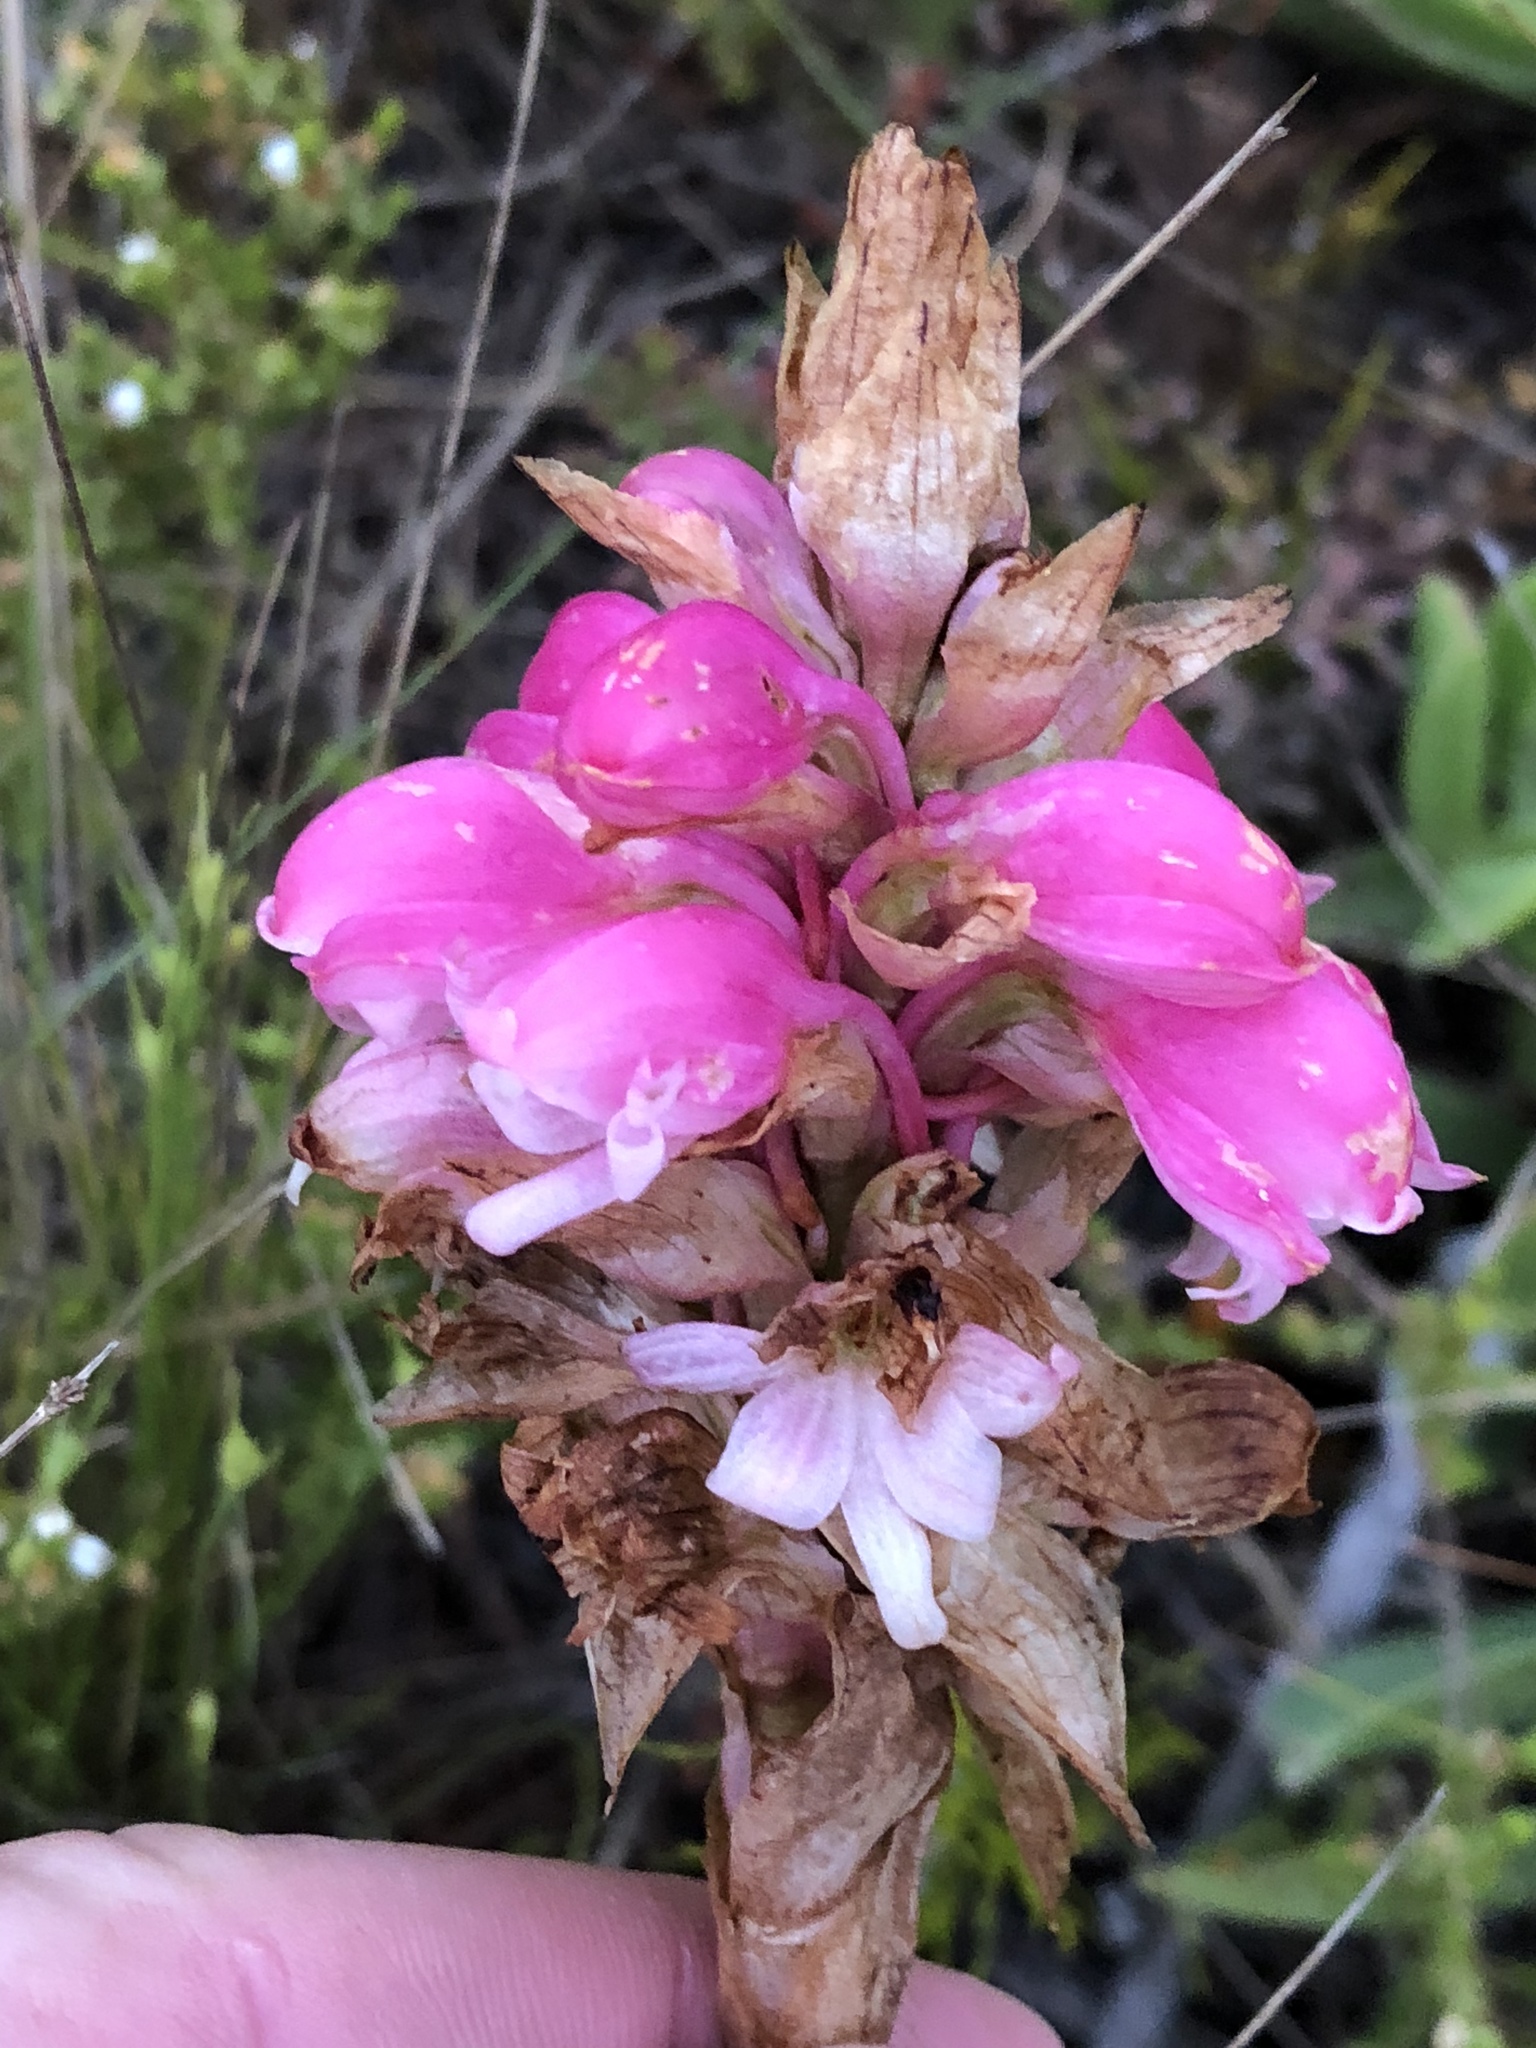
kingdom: Plantae
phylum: Tracheophyta
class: Liliopsida
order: Asparagales
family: Orchidaceae
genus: Satyrium
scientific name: Satyrium carneum
